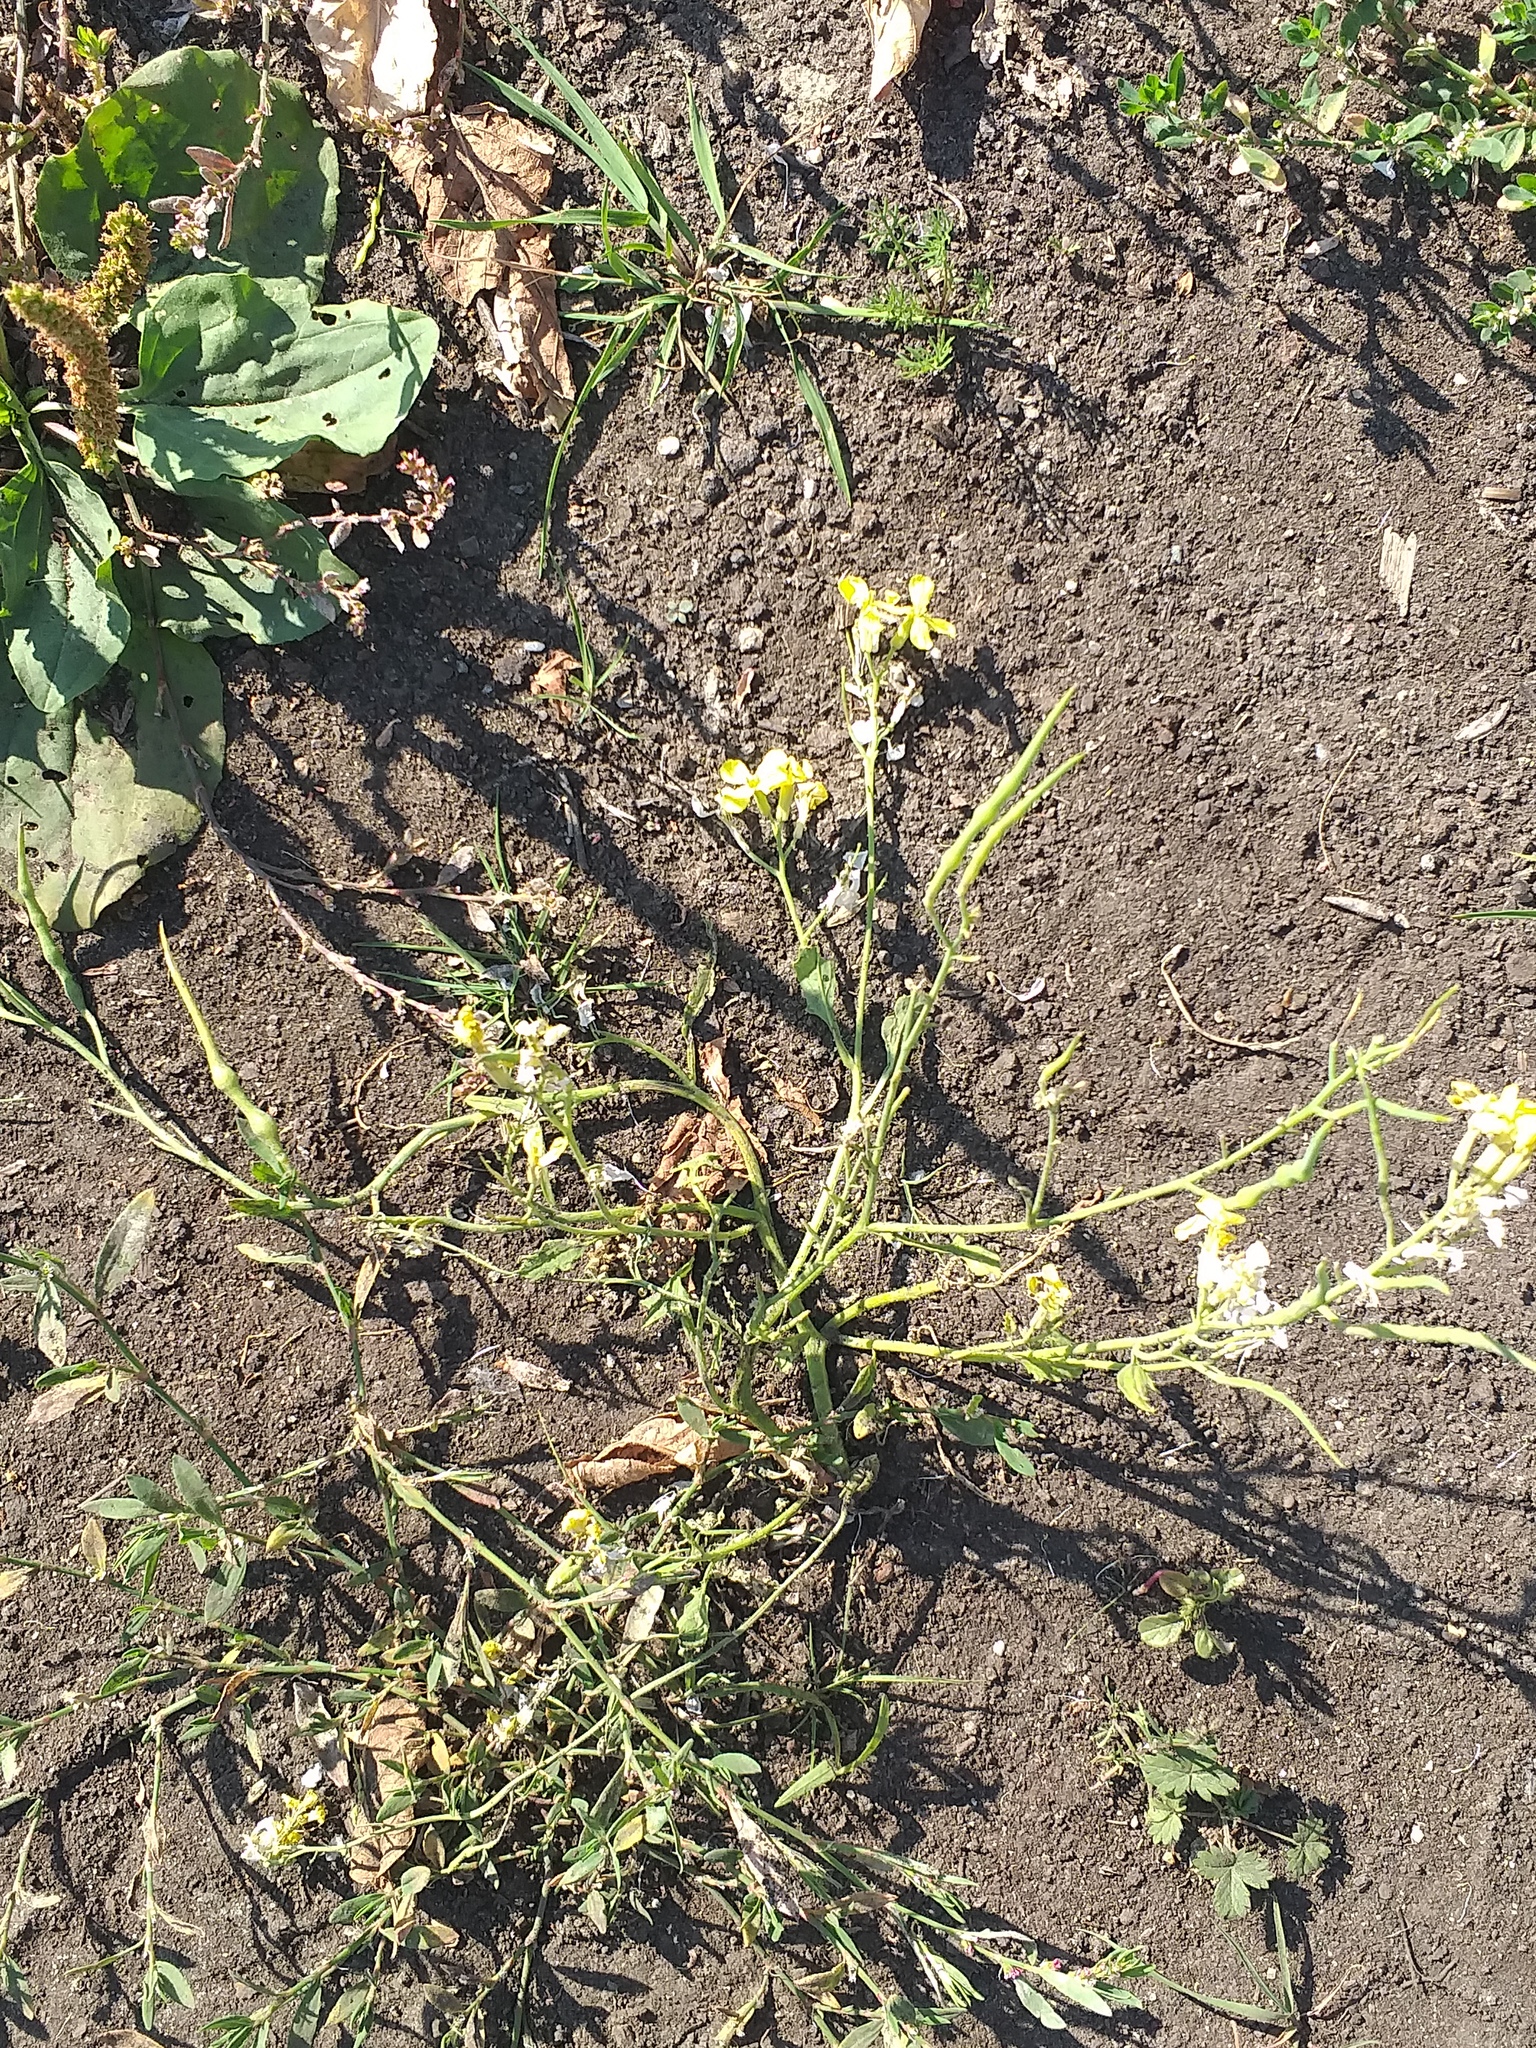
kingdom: Plantae
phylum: Tracheophyta
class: Magnoliopsida
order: Brassicales
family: Brassicaceae
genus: Raphanus
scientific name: Raphanus raphanistrum
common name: Wild radish
